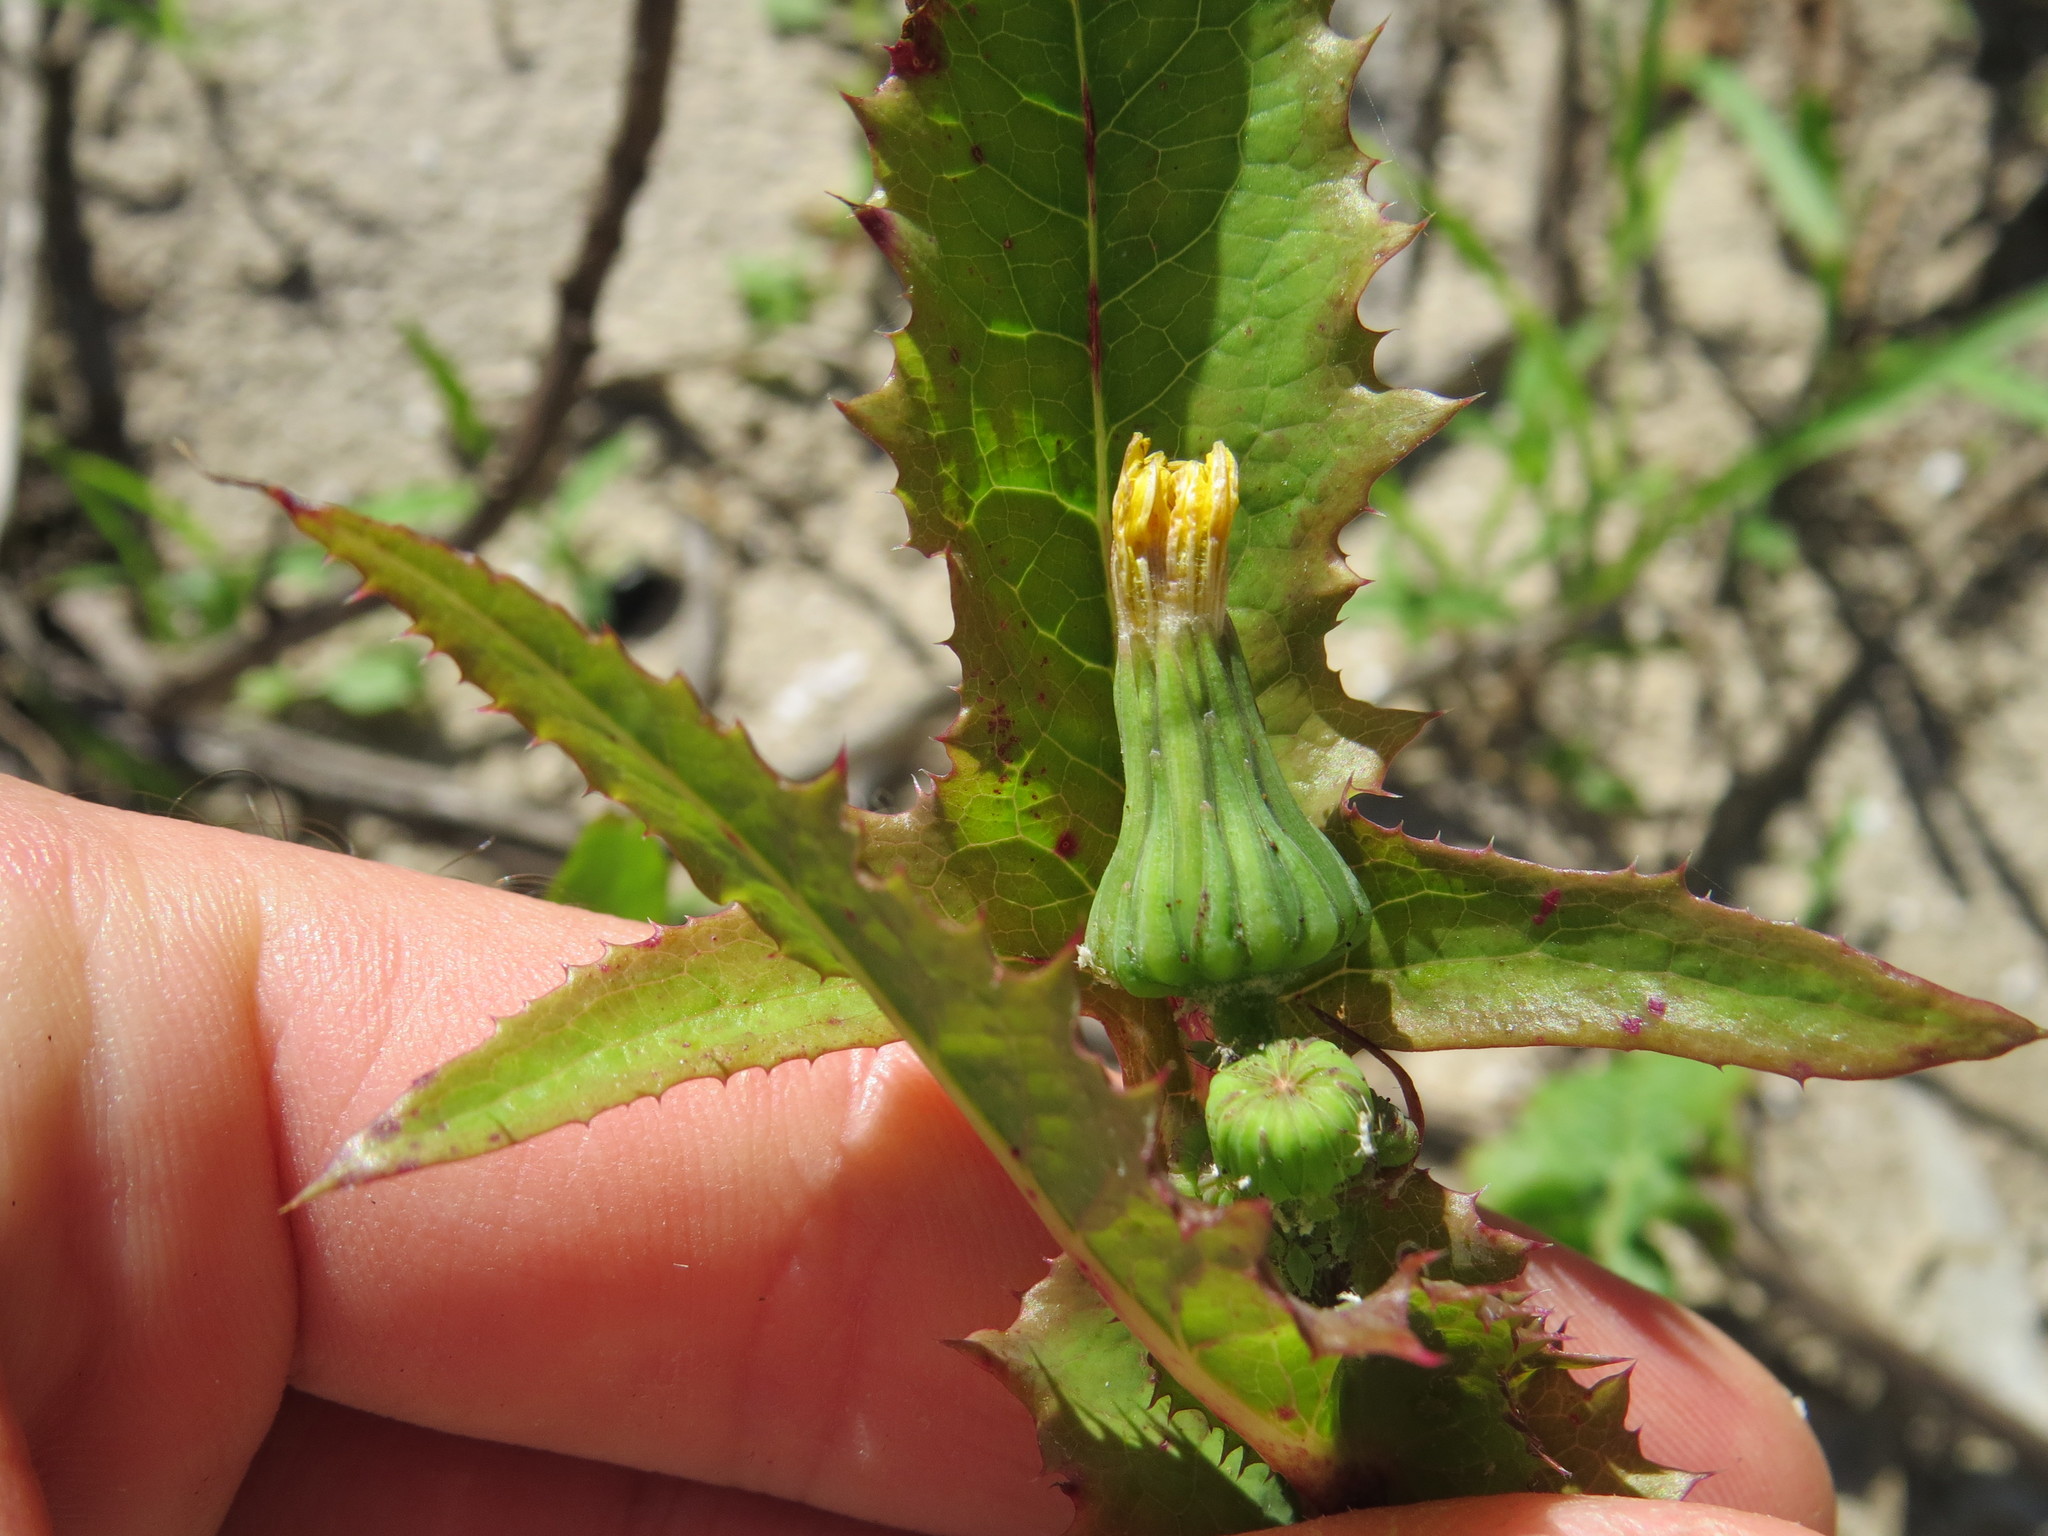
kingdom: Plantae
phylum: Tracheophyta
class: Magnoliopsida
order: Asterales
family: Asteraceae
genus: Sonchus
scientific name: Sonchus oleraceus
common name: Common sowthistle
